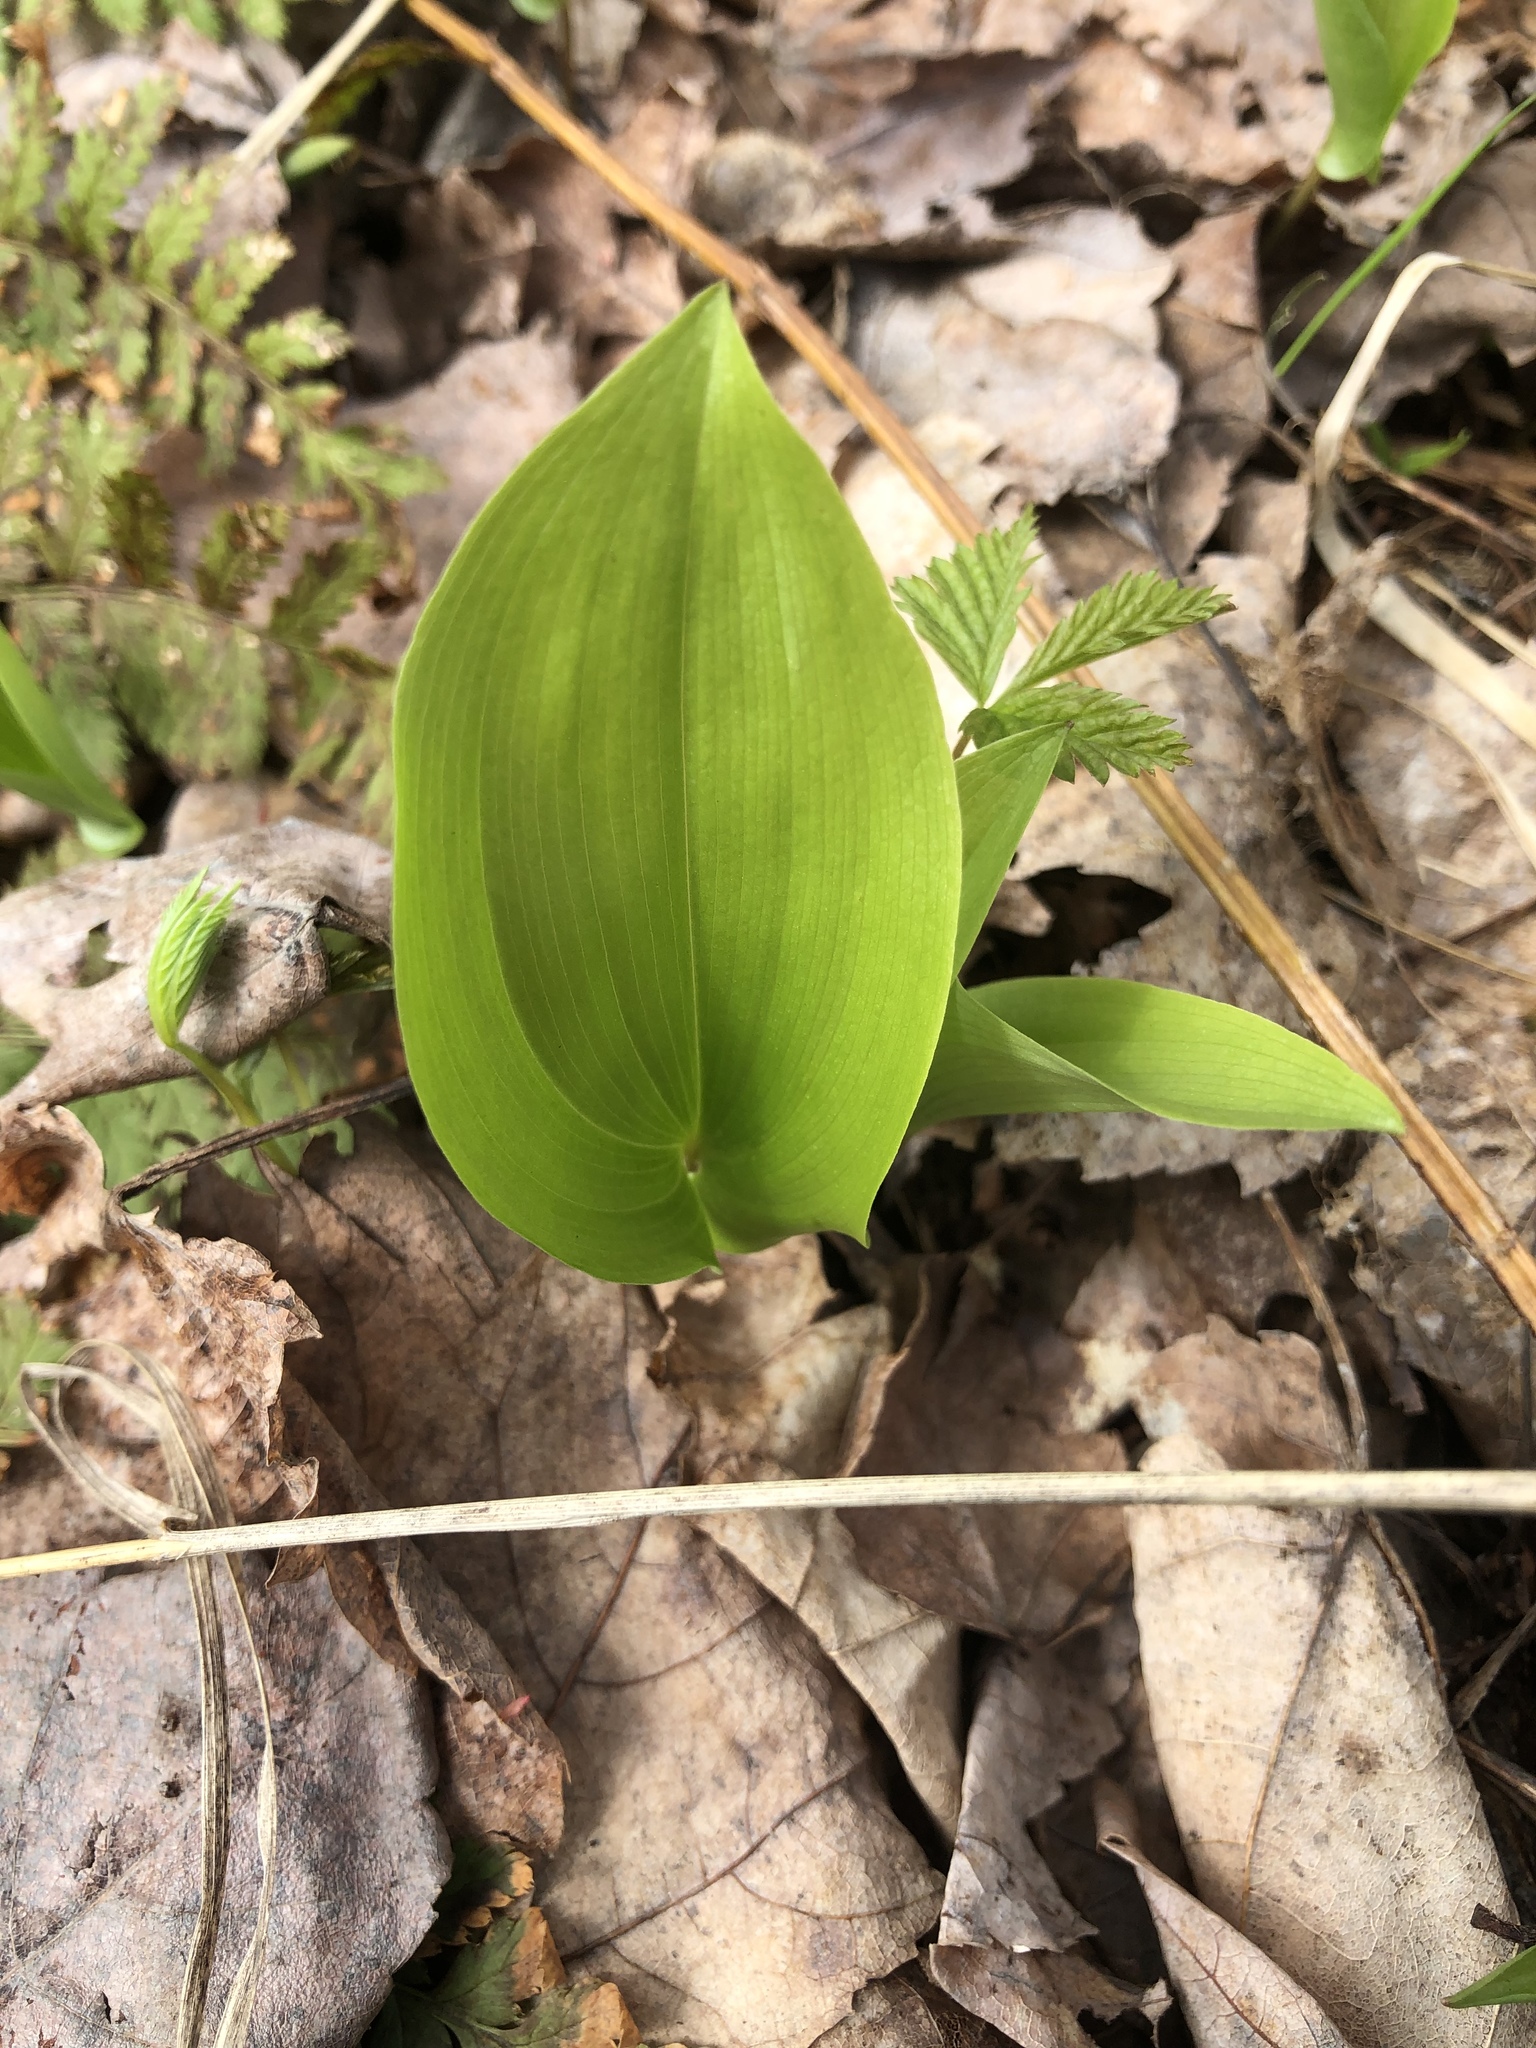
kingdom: Plantae
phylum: Tracheophyta
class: Liliopsida
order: Asparagales
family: Asparagaceae
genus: Maianthemum
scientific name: Maianthemum canadense
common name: False lily-of-the-valley
